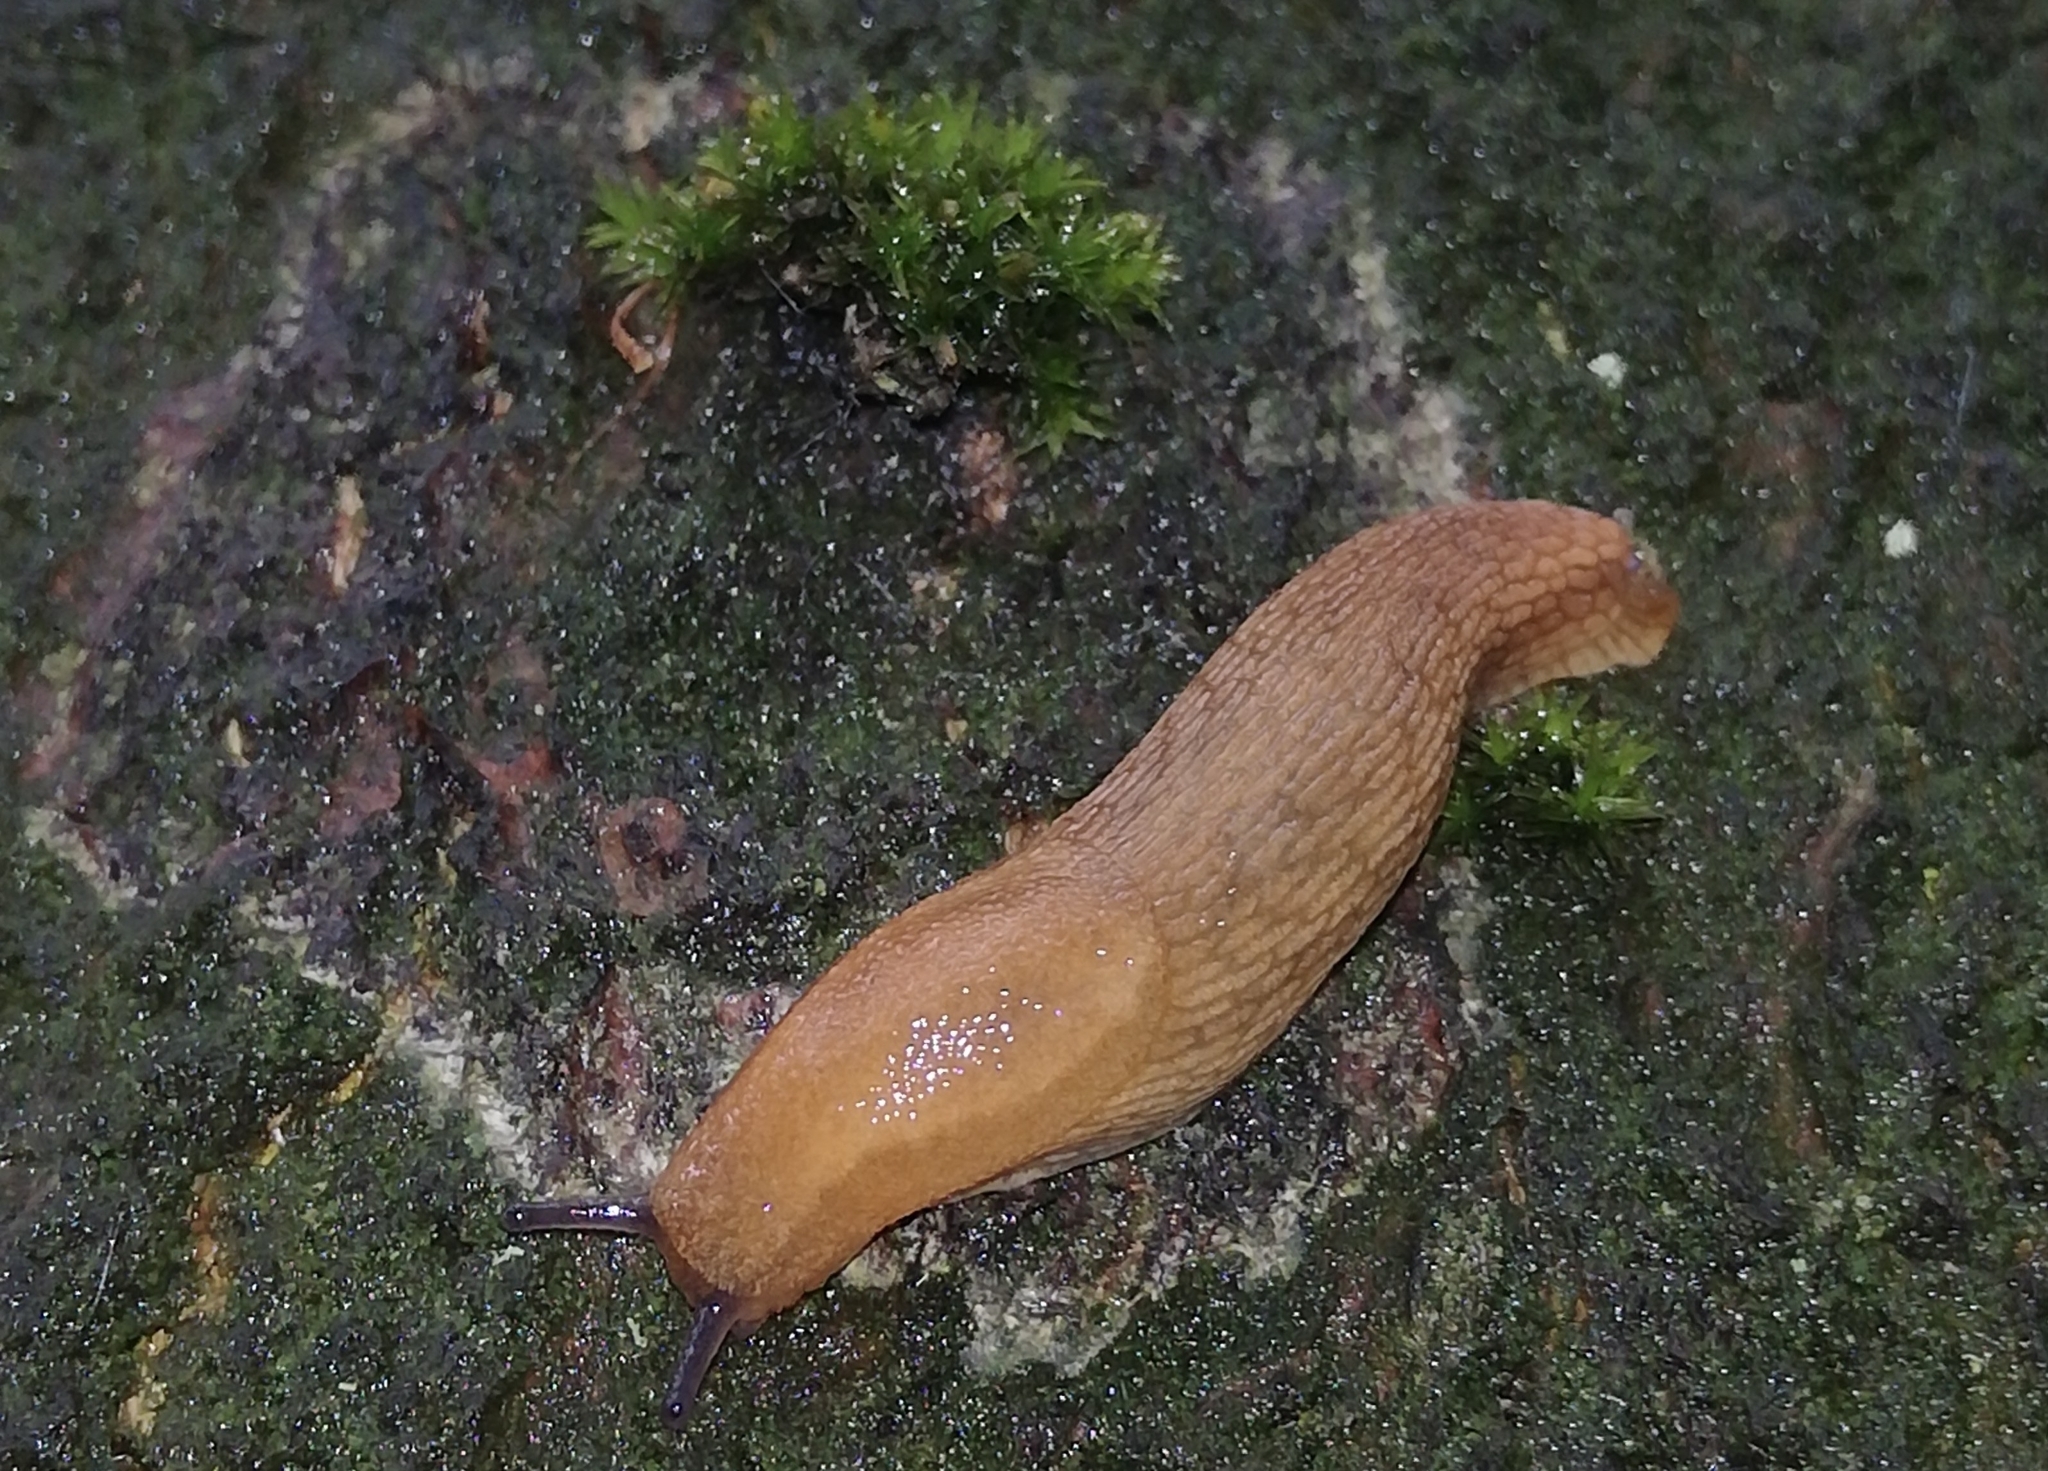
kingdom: Animalia
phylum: Mollusca
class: Gastropoda
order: Stylommatophora
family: Arionidae
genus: Arion
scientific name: Arion fuscus
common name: Northern dusky slug
